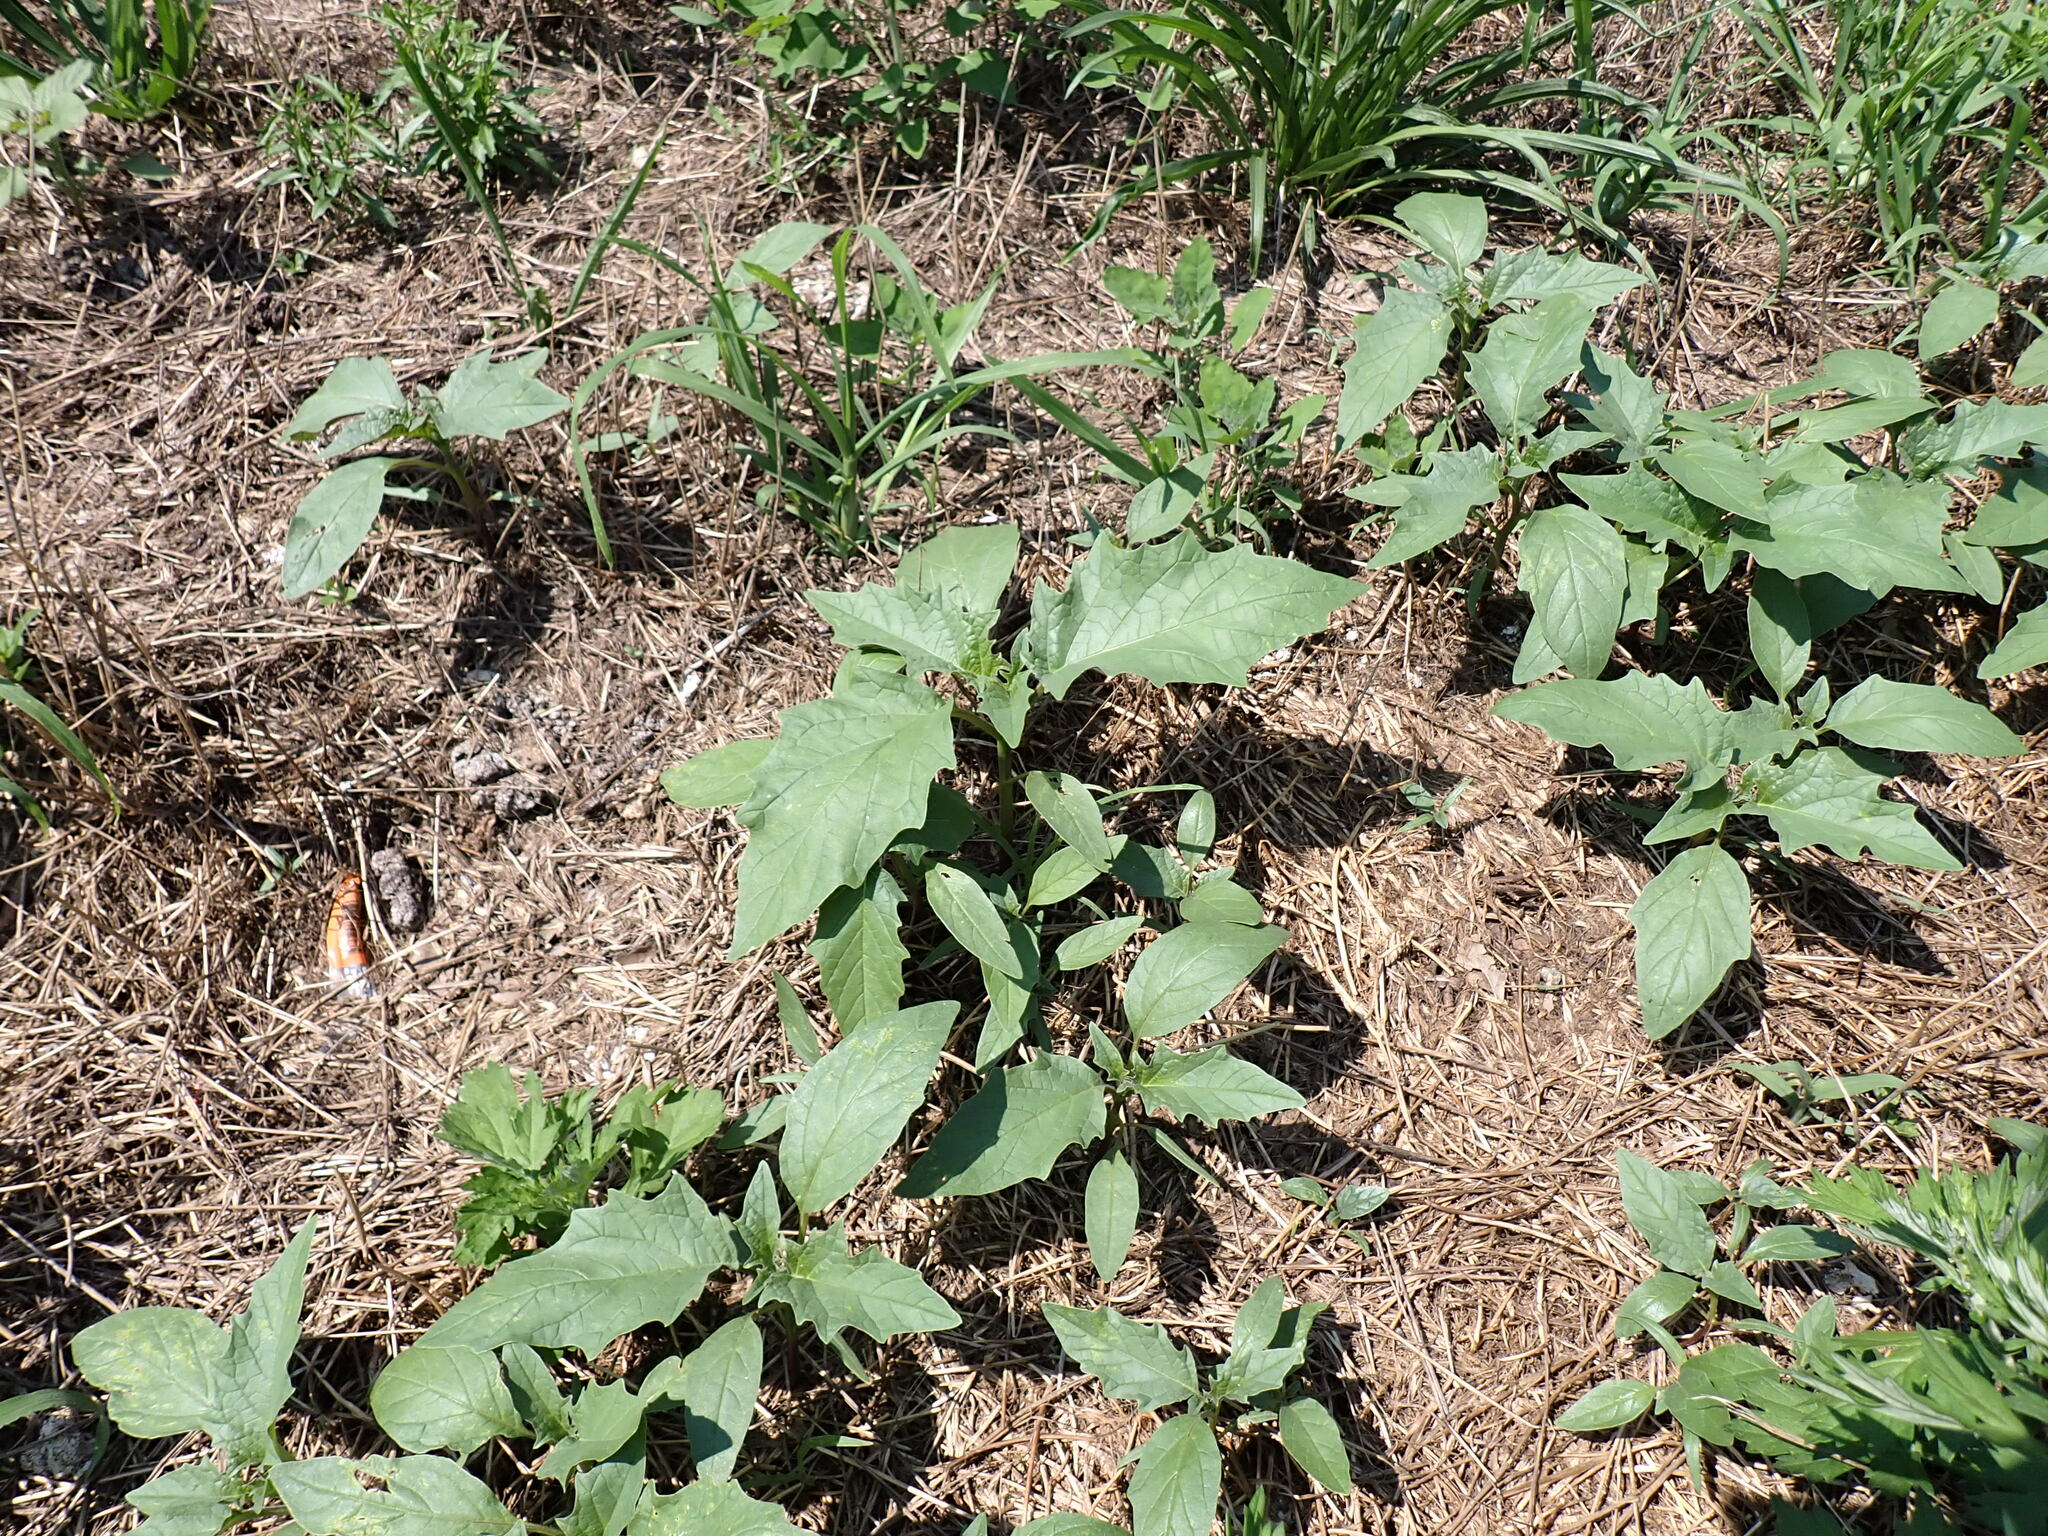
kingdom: Plantae
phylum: Tracheophyta
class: Magnoliopsida
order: Solanales
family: Solanaceae
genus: Datura
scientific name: Datura stramonium
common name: Thorn-apple
